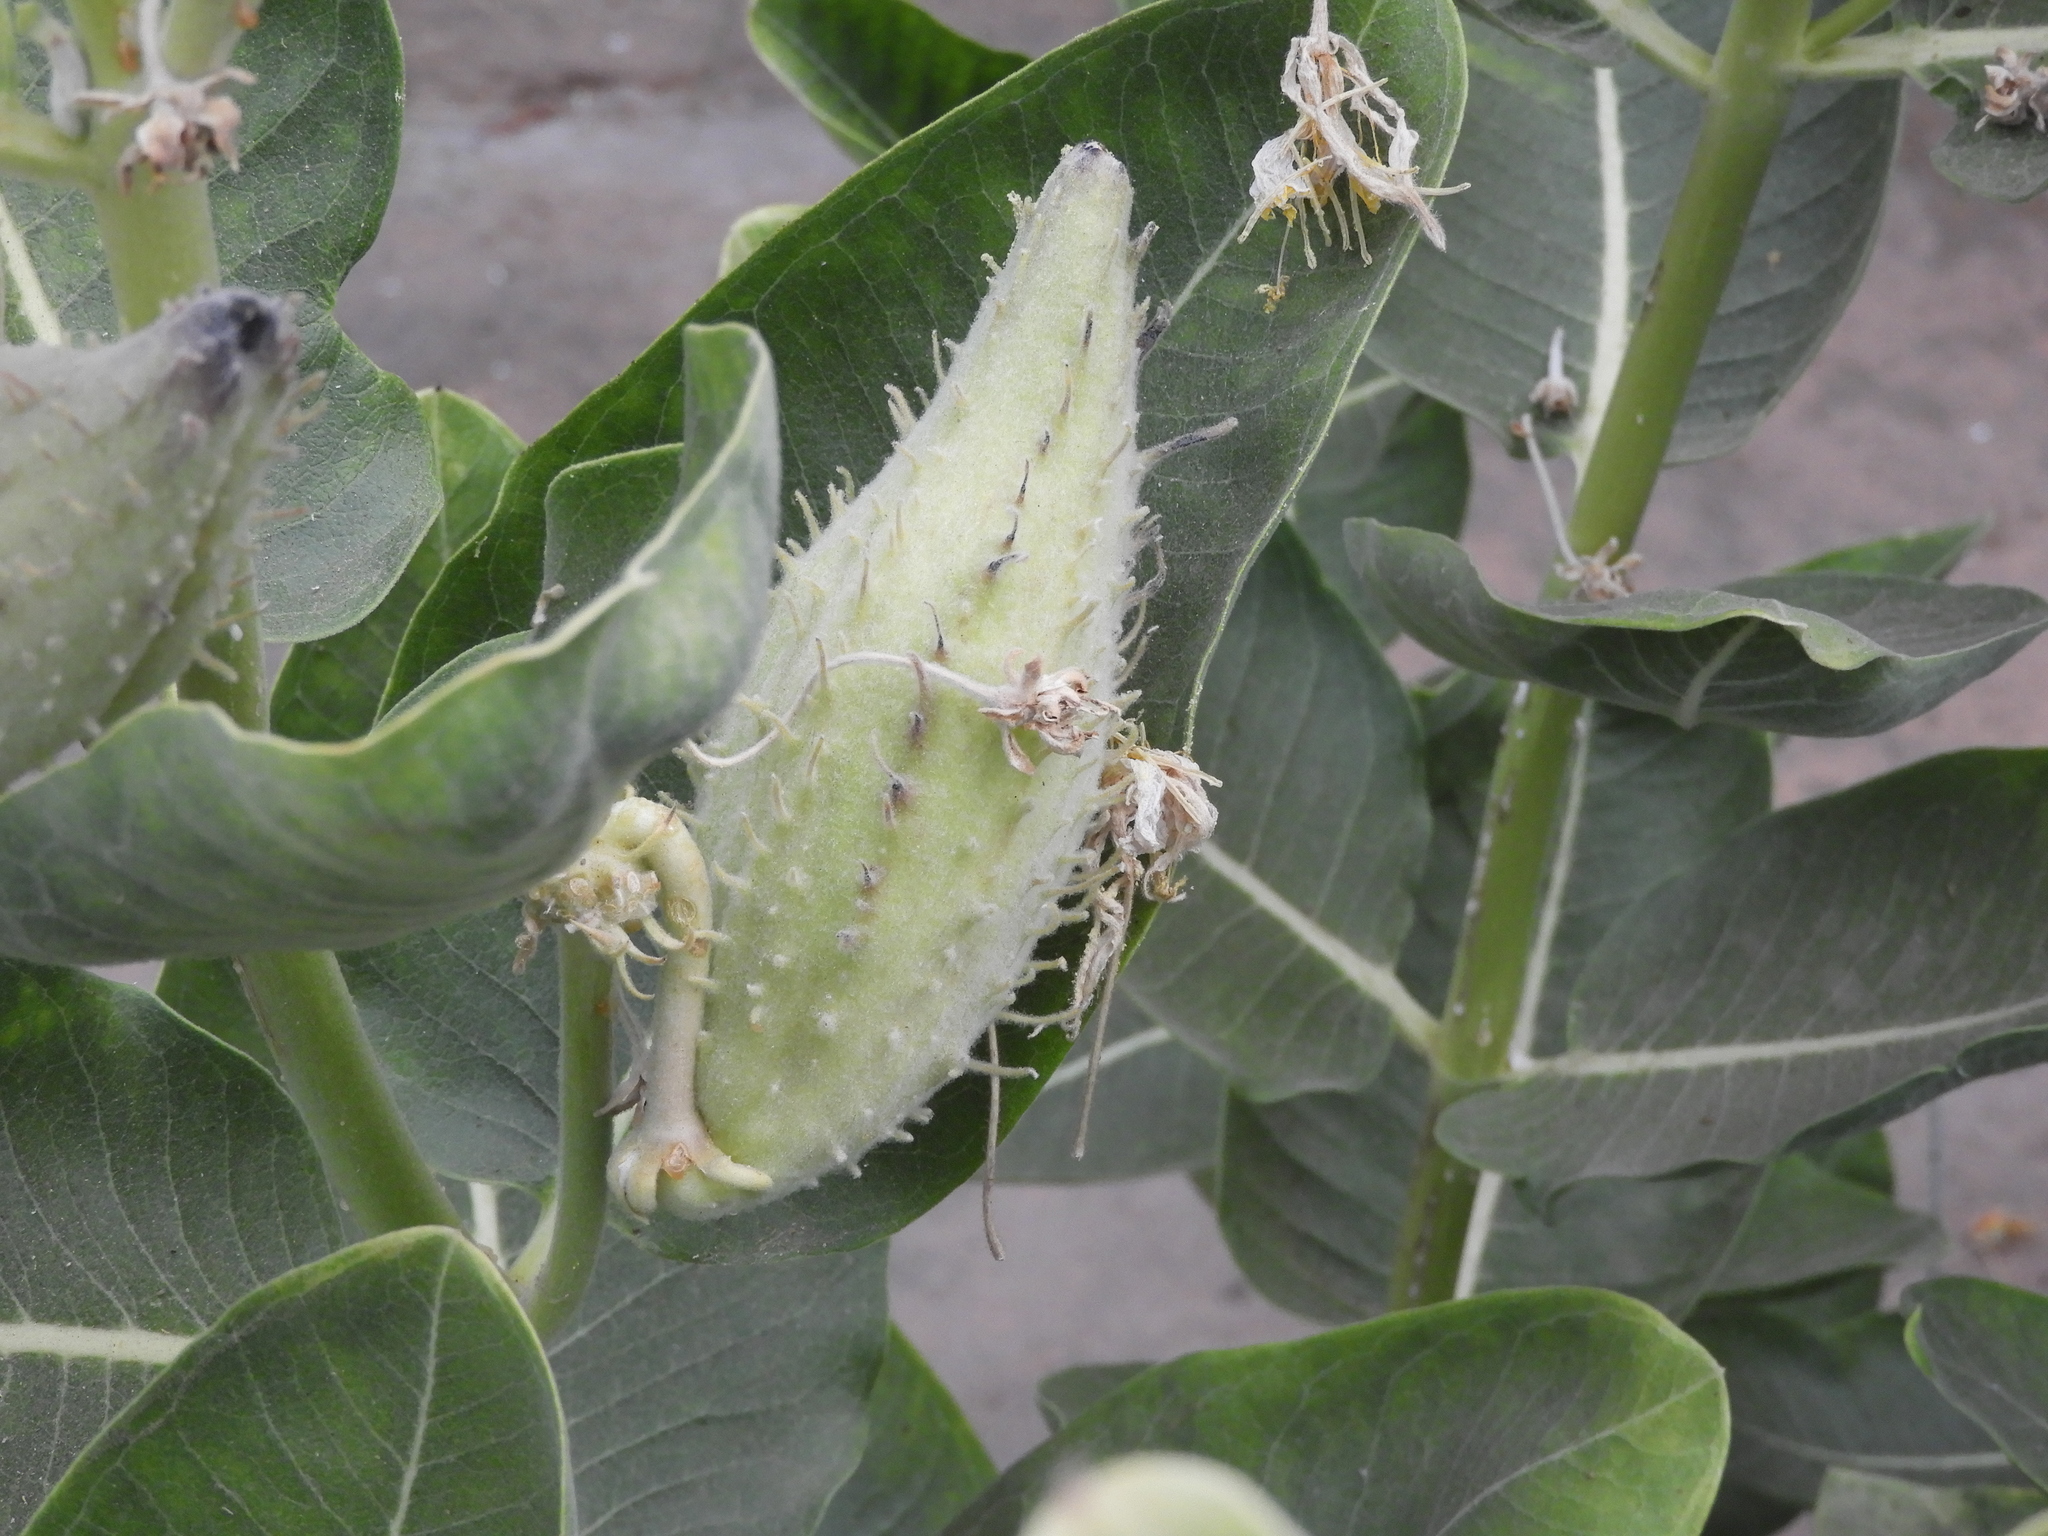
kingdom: Plantae
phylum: Tracheophyta
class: Magnoliopsida
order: Gentianales
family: Apocynaceae
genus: Asclepias
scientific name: Asclepias speciosa
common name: Showy milkweed
